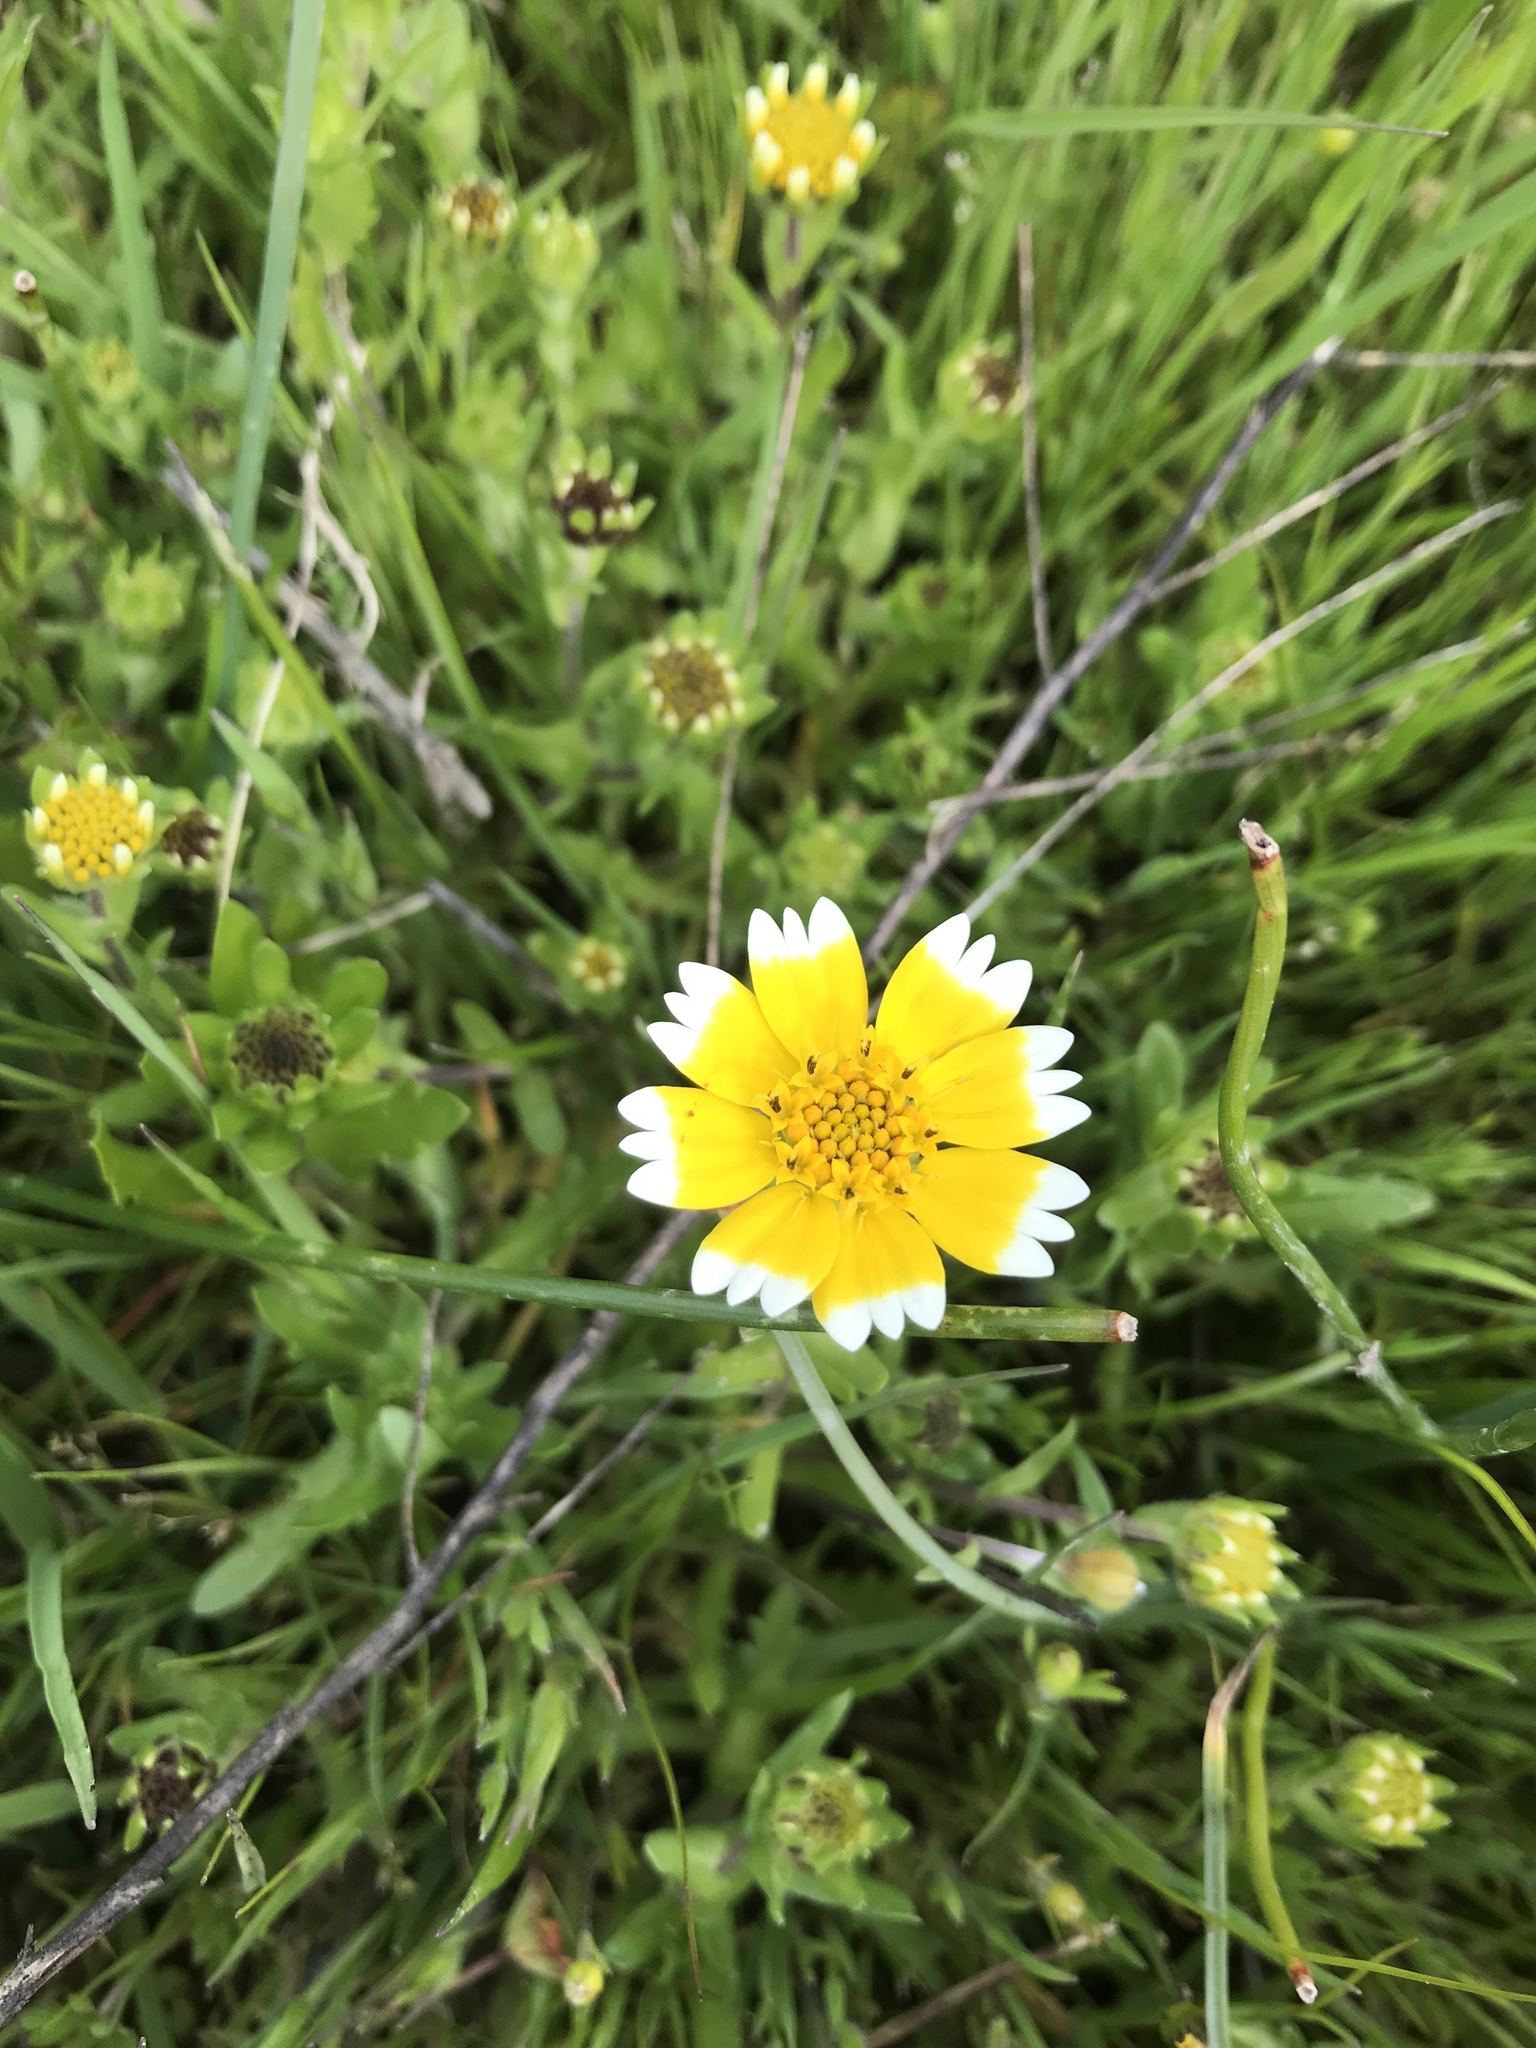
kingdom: Plantae
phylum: Tracheophyta
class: Magnoliopsida
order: Asterales
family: Asteraceae
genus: Layia
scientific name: Layia platyglossa
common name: Tidy-tips
